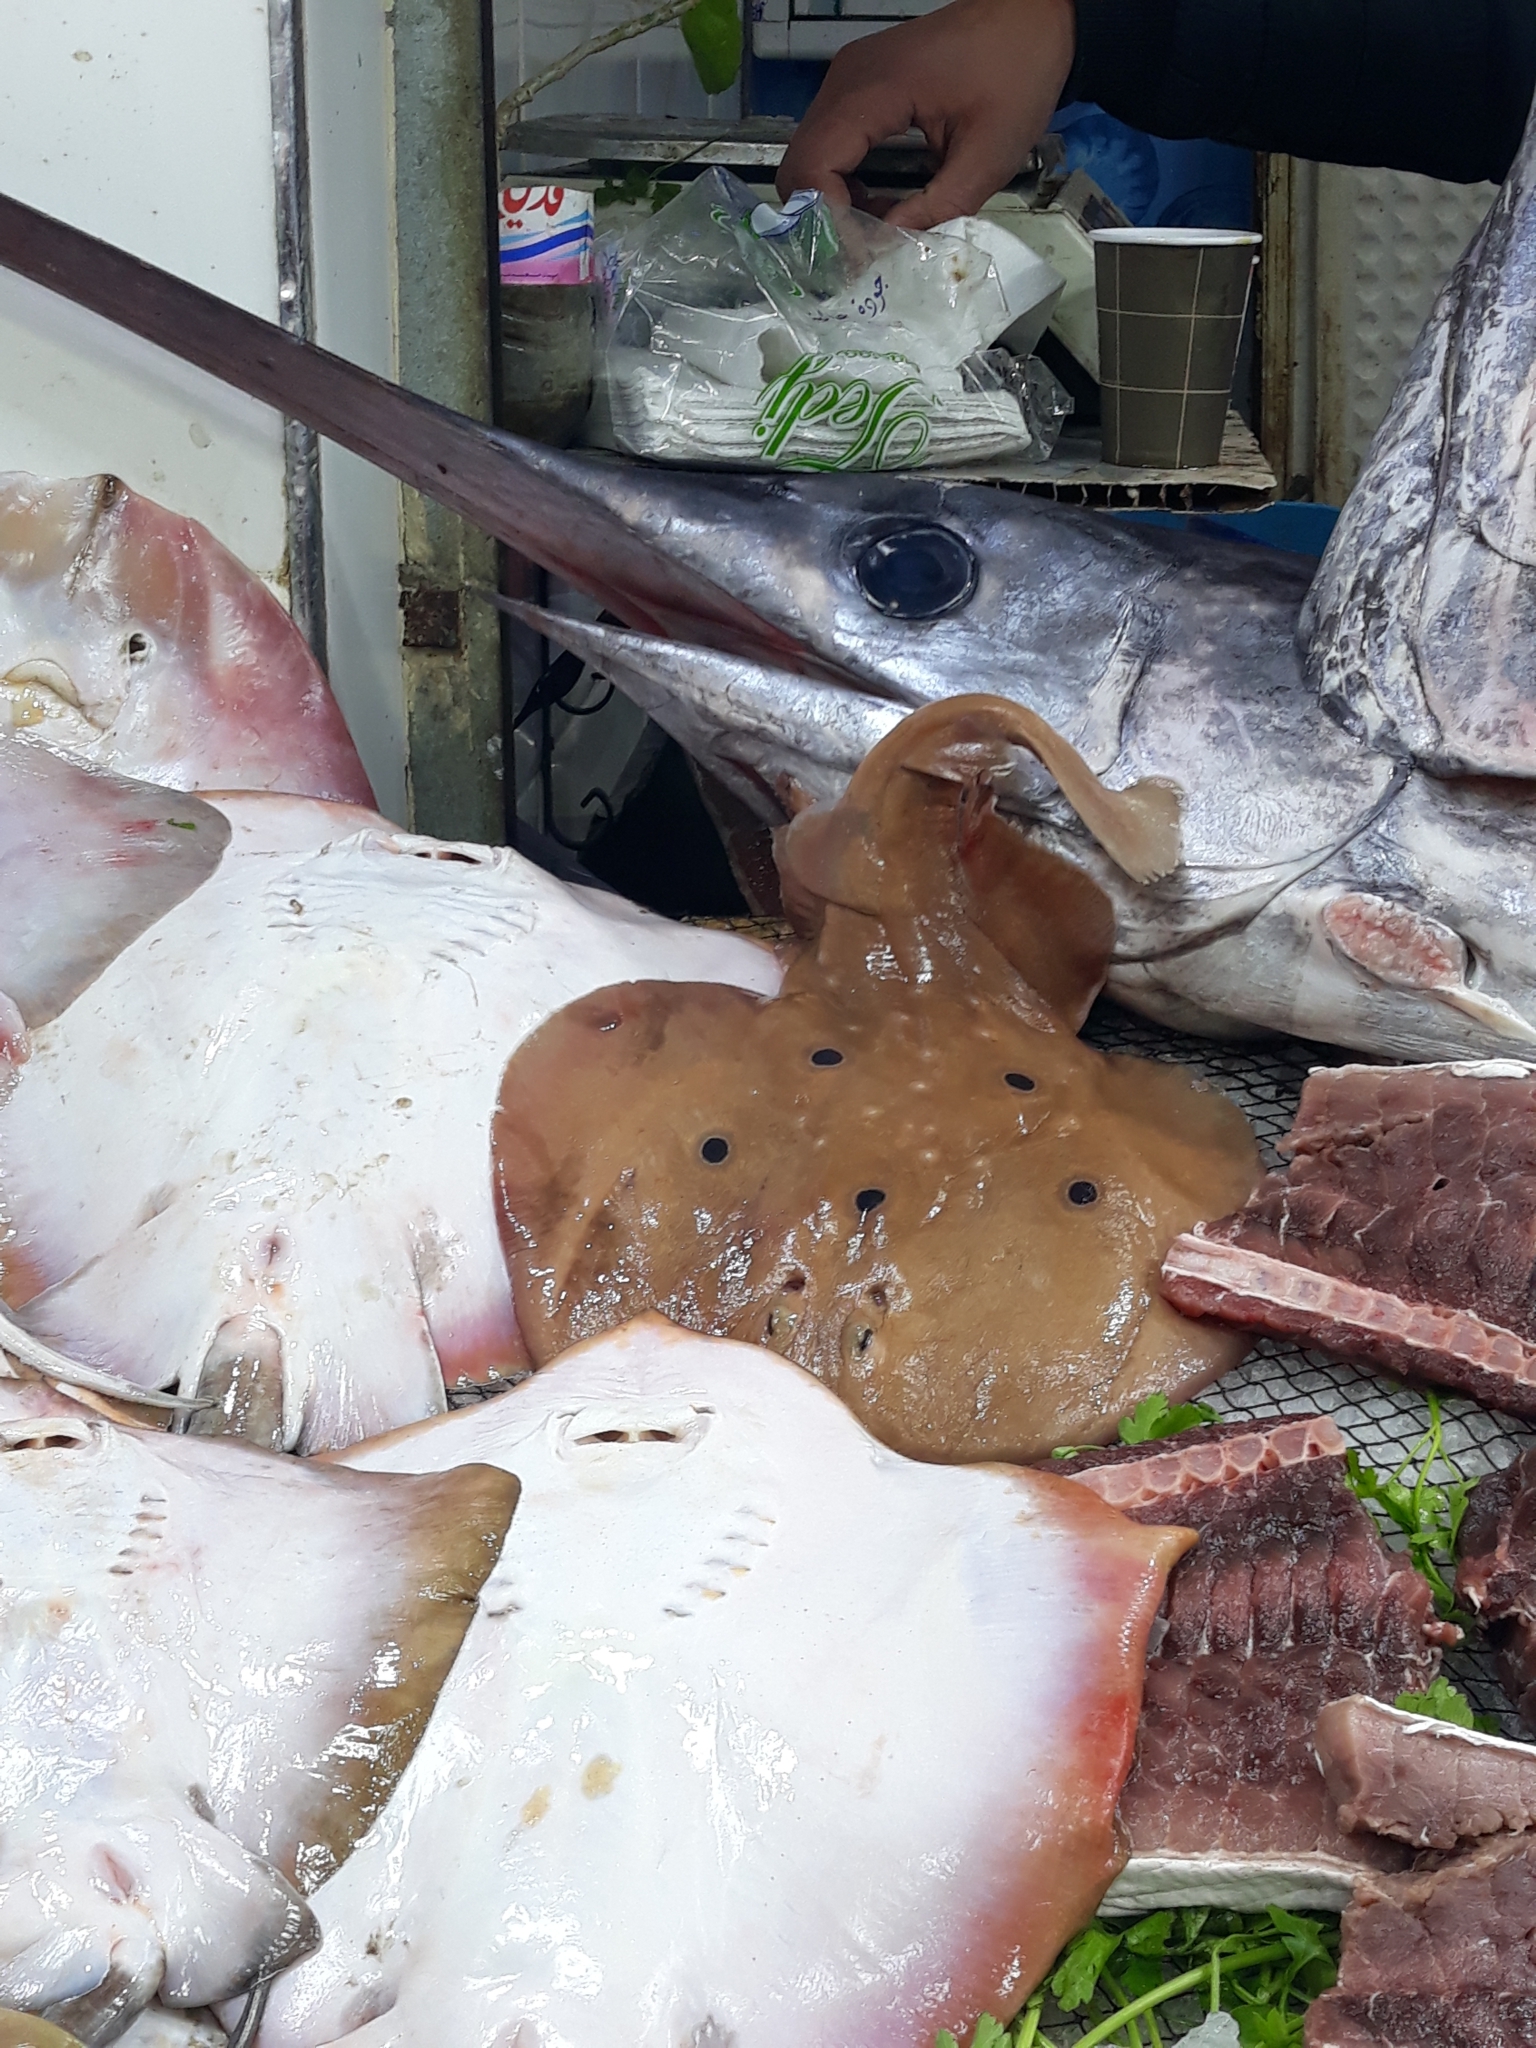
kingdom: Animalia
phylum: Chordata
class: Elasmobranchii
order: Torpediniformes
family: Torpedinidae
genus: Torpedo
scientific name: Torpedo torpedo
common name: Common torpedo
